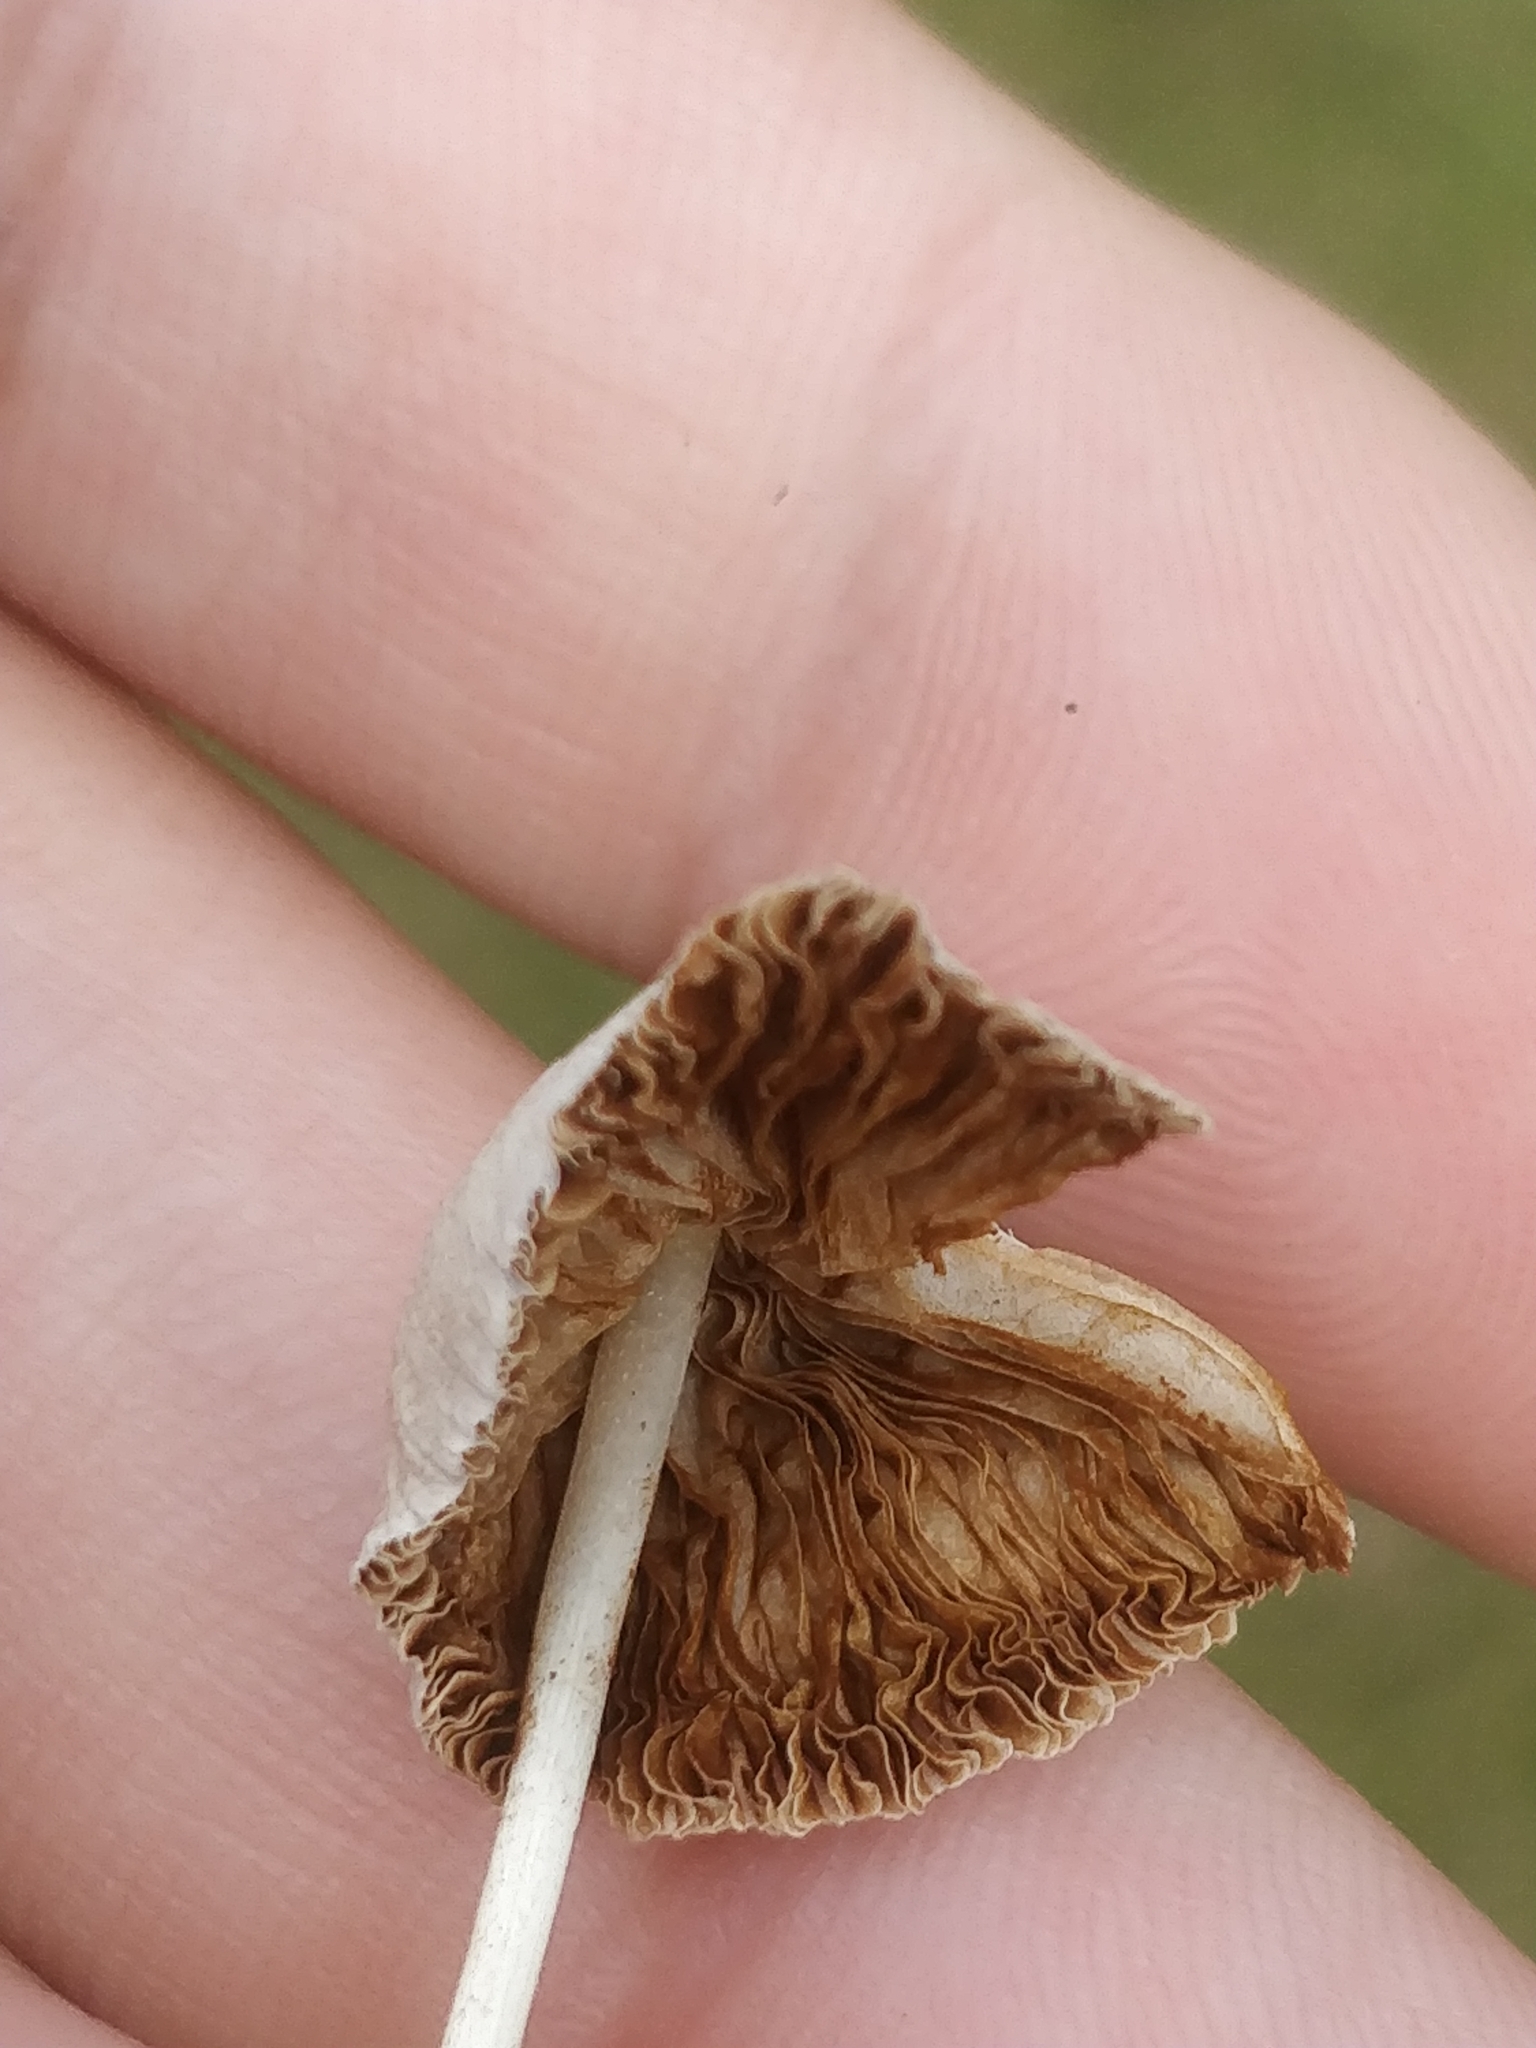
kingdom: Fungi
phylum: Basidiomycota
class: Agaricomycetes
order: Agaricales
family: Bolbitiaceae
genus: Conocybe
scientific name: Conocybe apala
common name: Milky conecap
